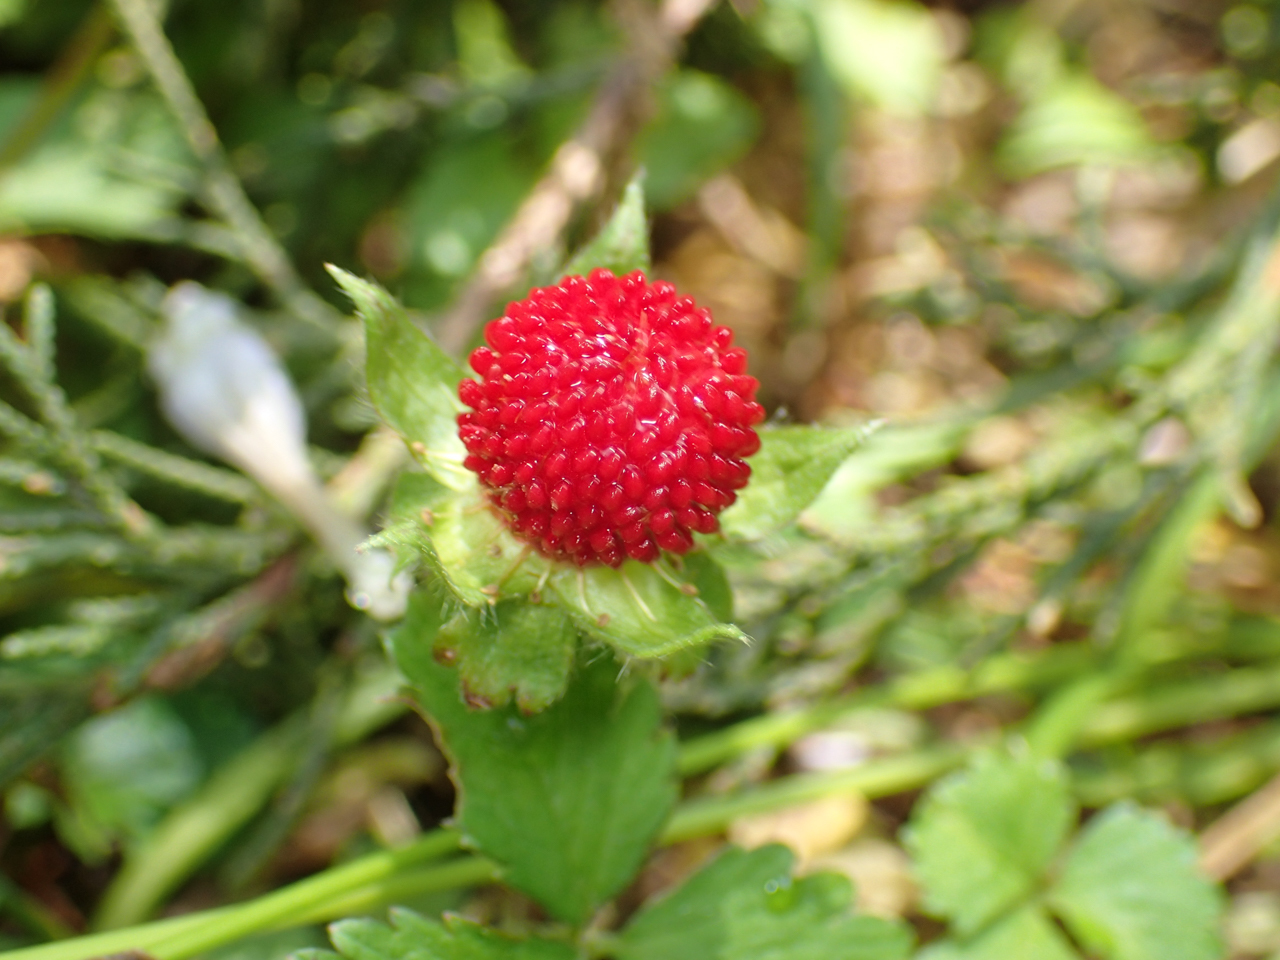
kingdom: Plantae
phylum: Tracheophyta
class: Magnoliopsida
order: Rosales
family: Rosaceae
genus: Potentilla
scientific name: Potentilla indica
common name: Yellow-flowered strawberry
